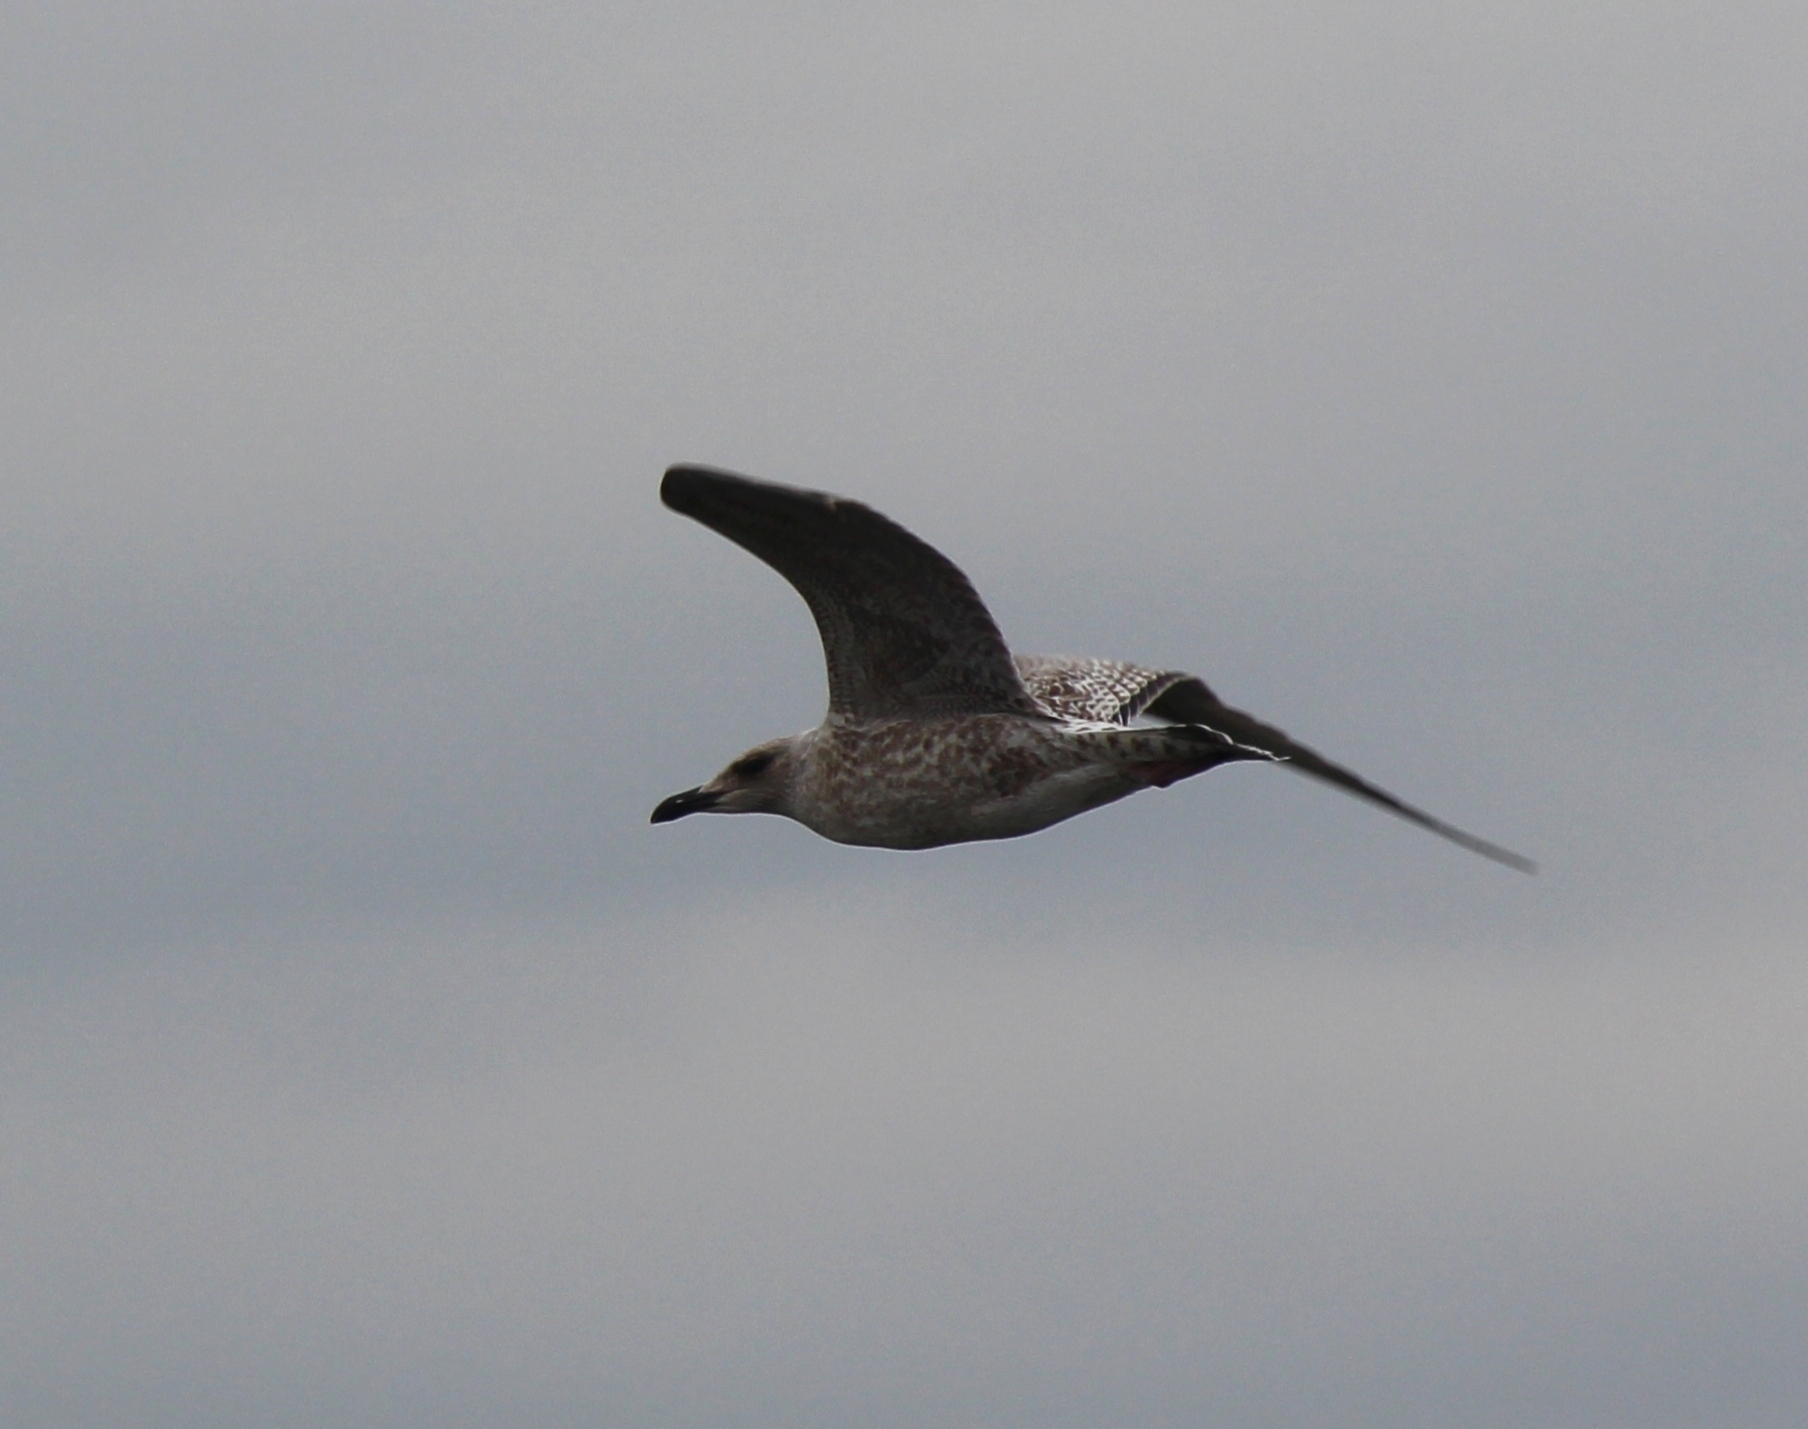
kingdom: Animalia
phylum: Chordata
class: Aves
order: Charadriiformes
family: Laridae
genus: Larus
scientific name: Larus vegae
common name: Vega gull
